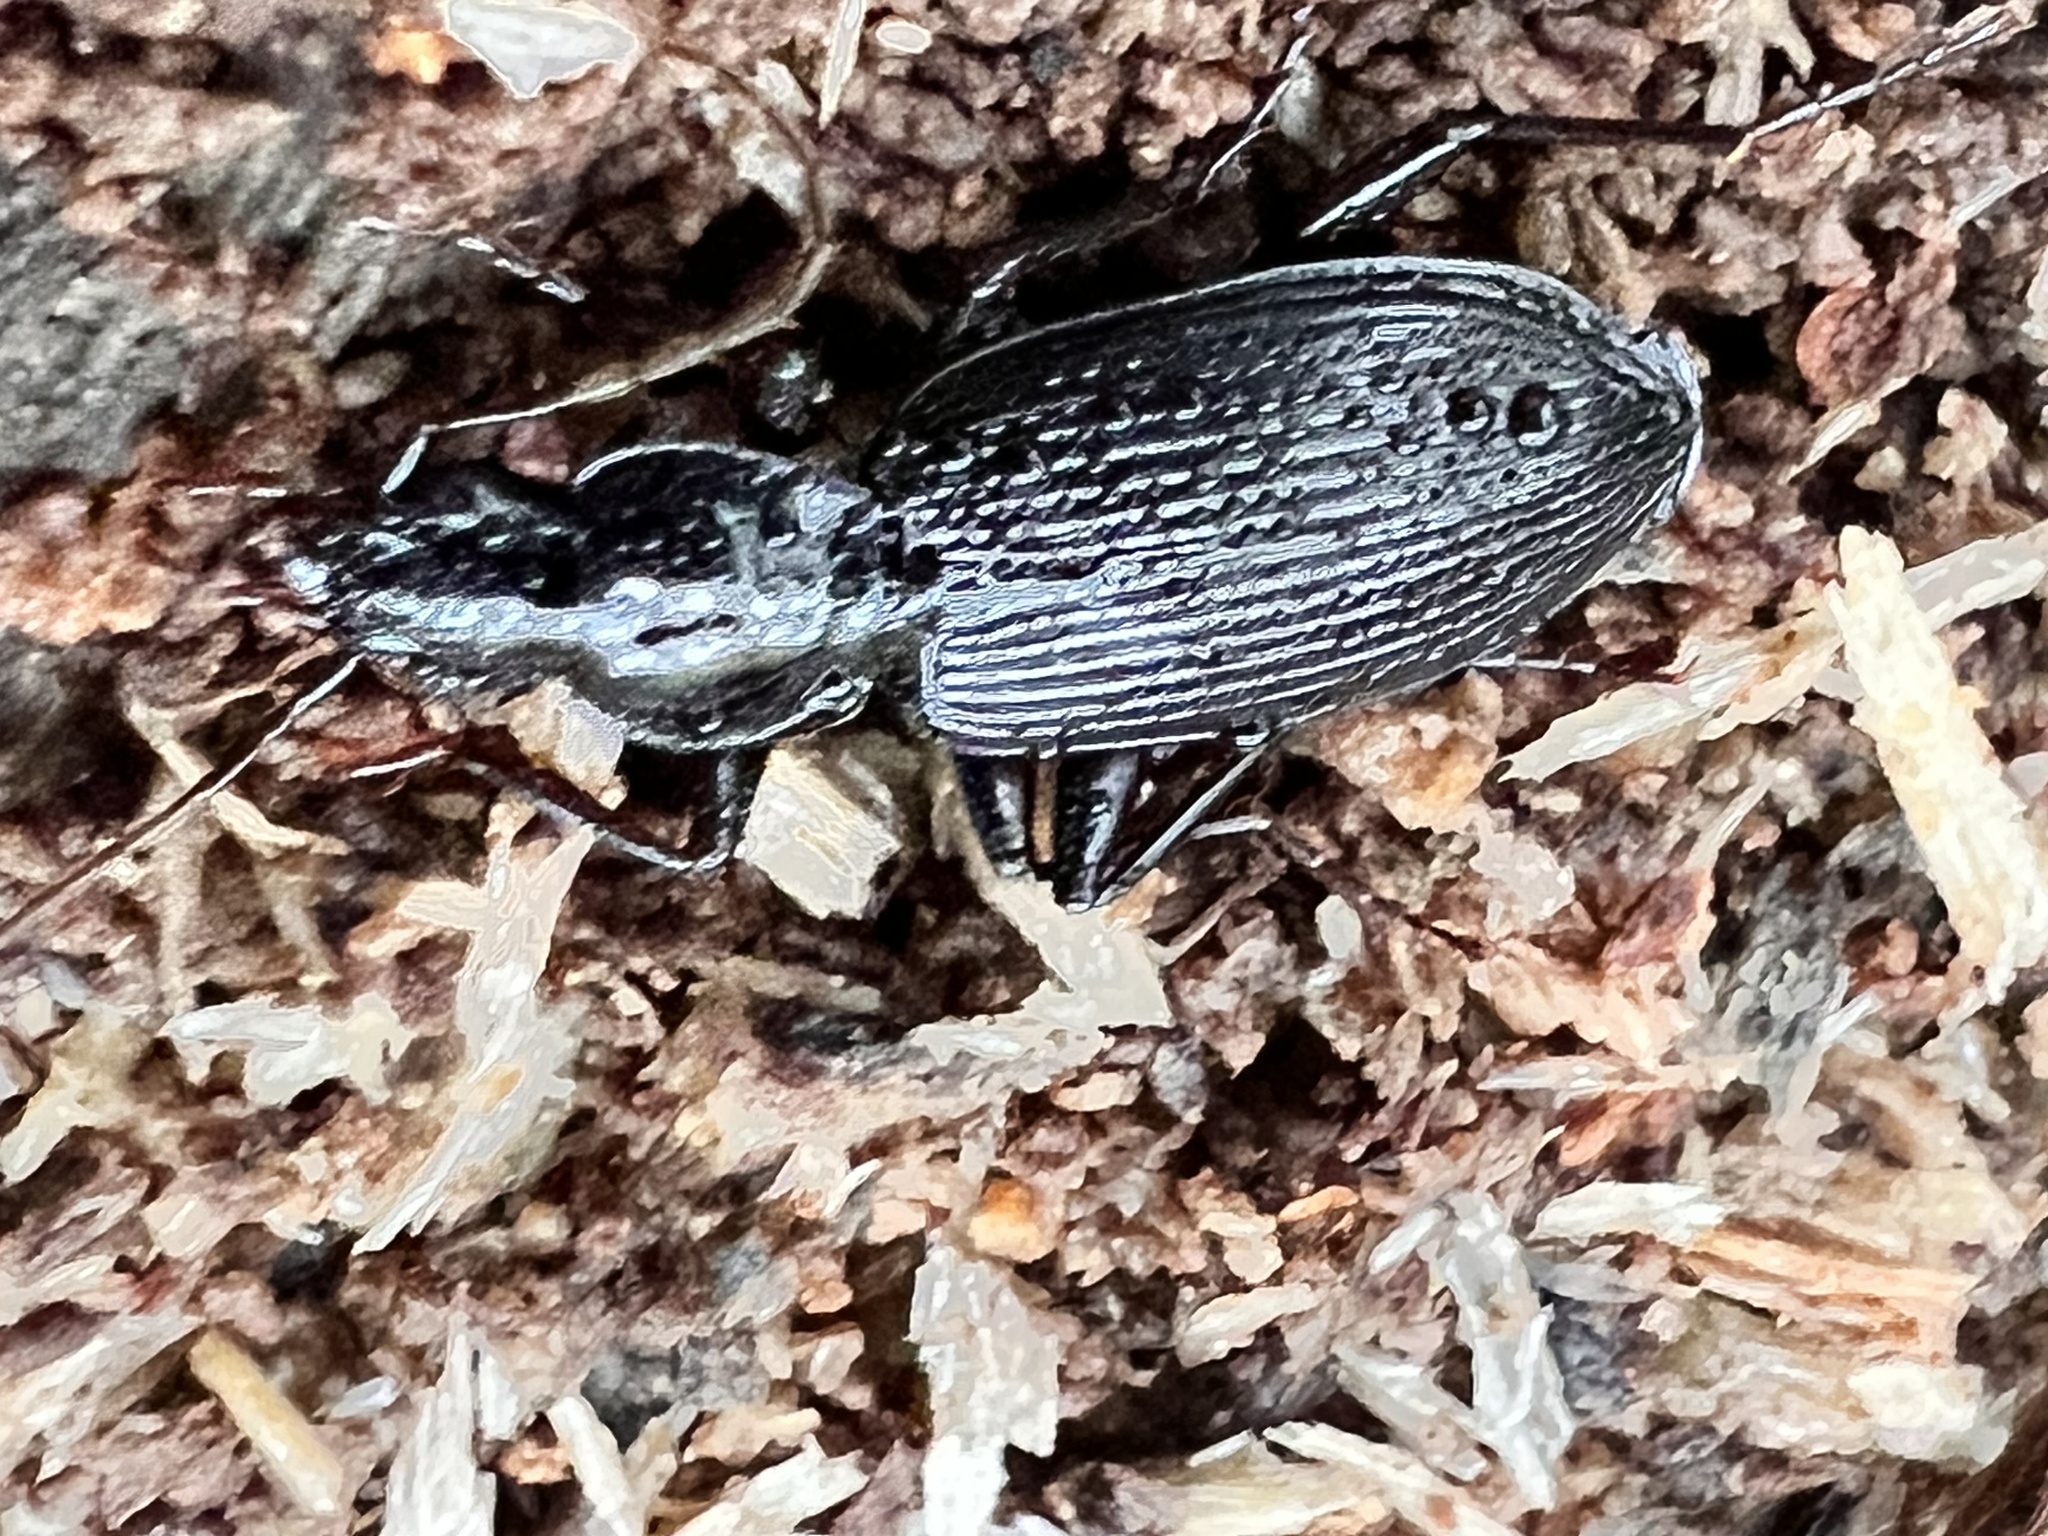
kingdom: Animalia
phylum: Arthropoda
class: Insecta
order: Coleoptera
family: Carabidae
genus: Platynus
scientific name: Platynus decentis
